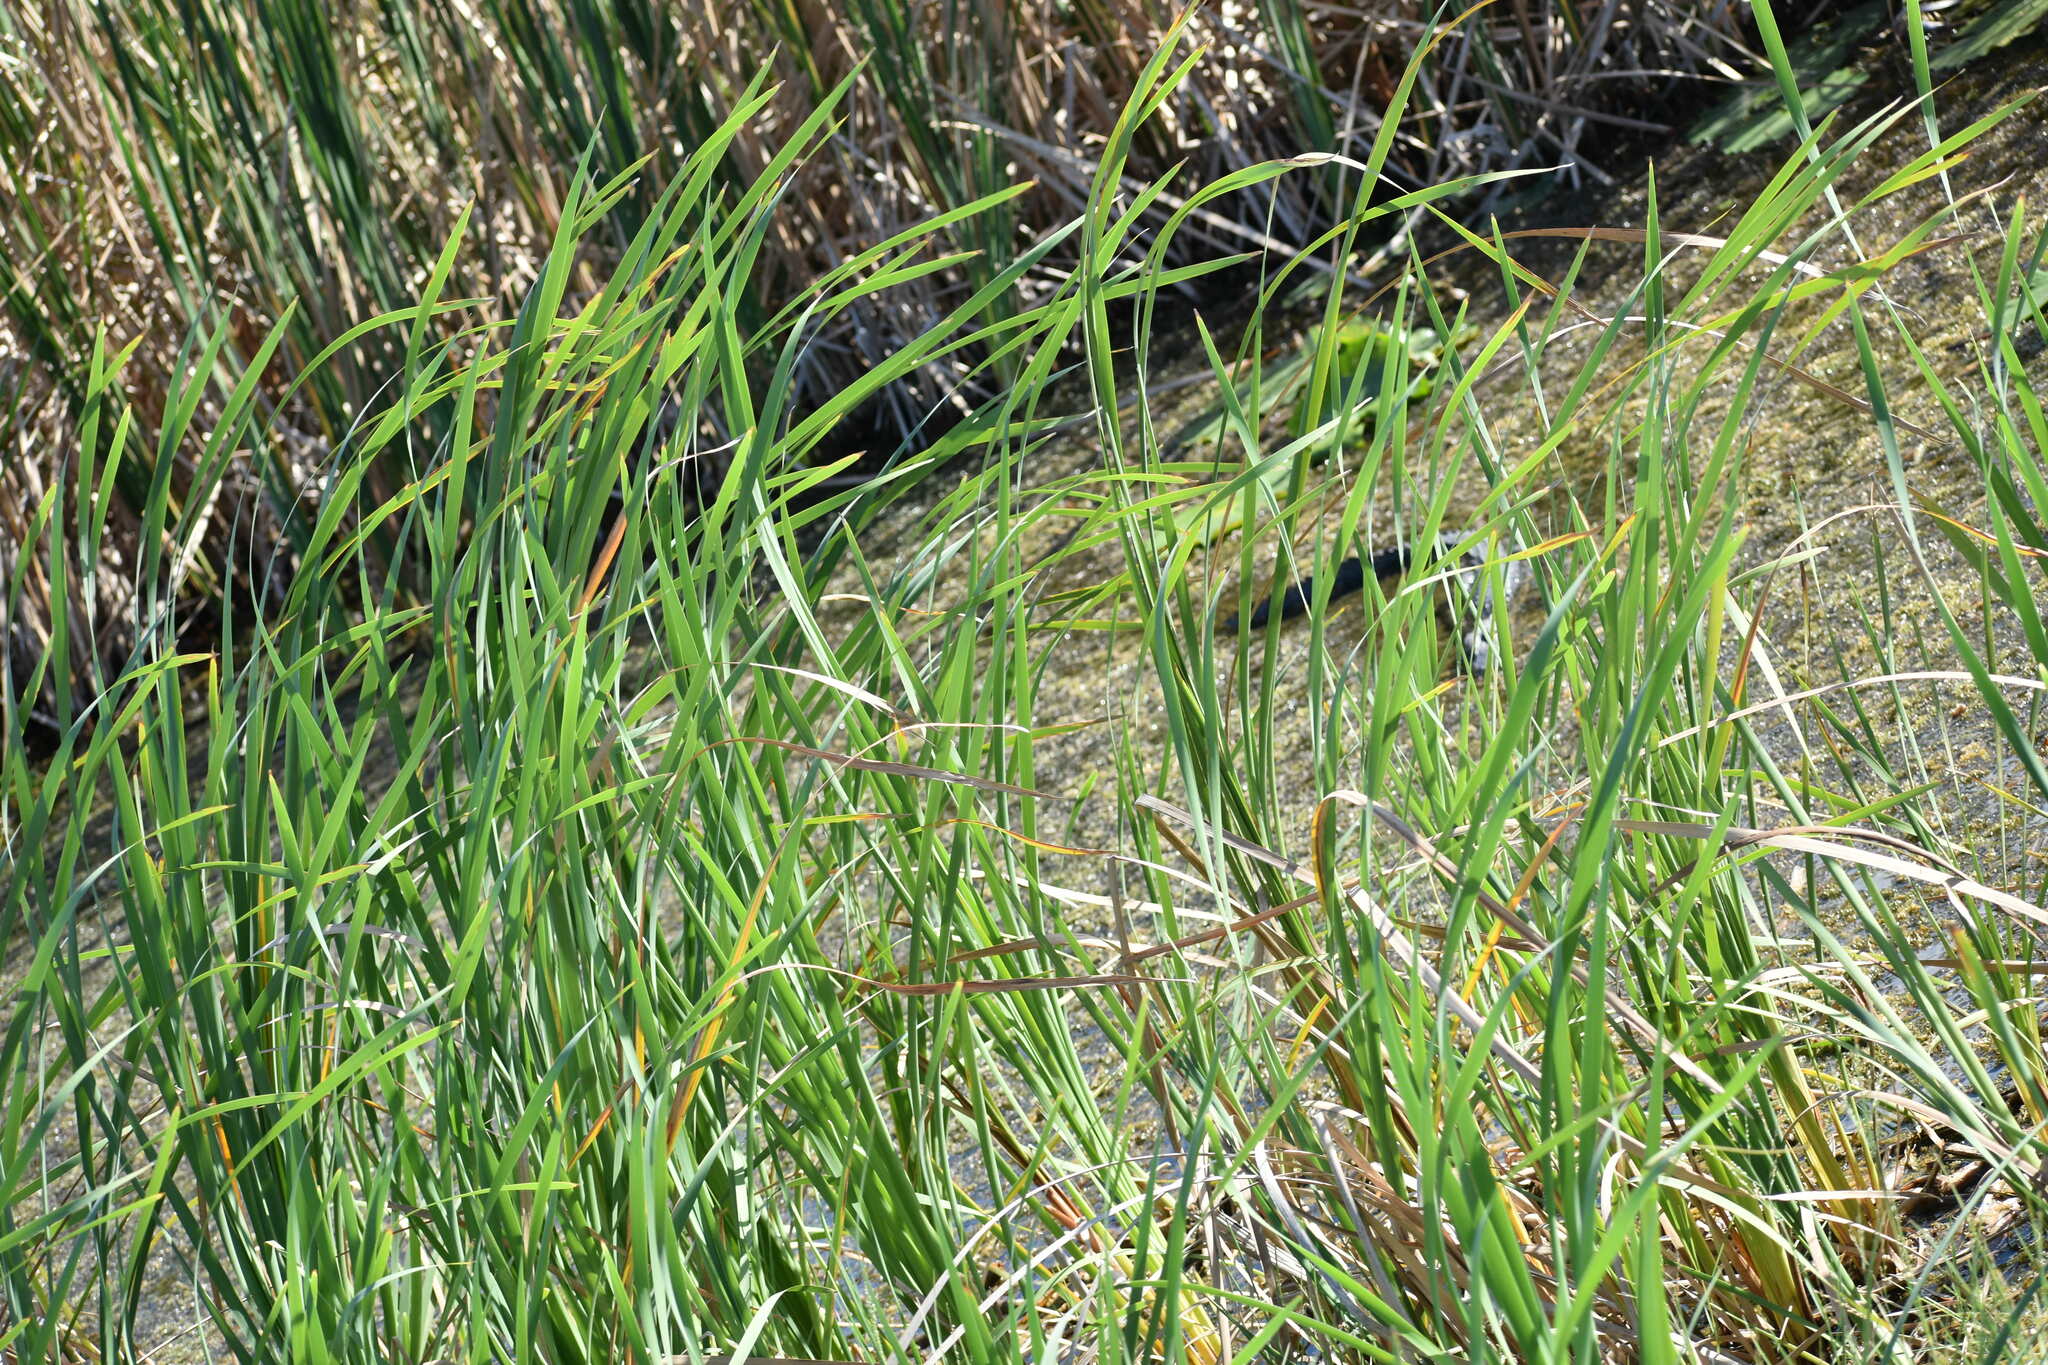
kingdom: Animalia
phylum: Chordata
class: Crocodylia
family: Alligatoridae
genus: Alligator
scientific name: Alligator mississippiensis
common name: American alligator
